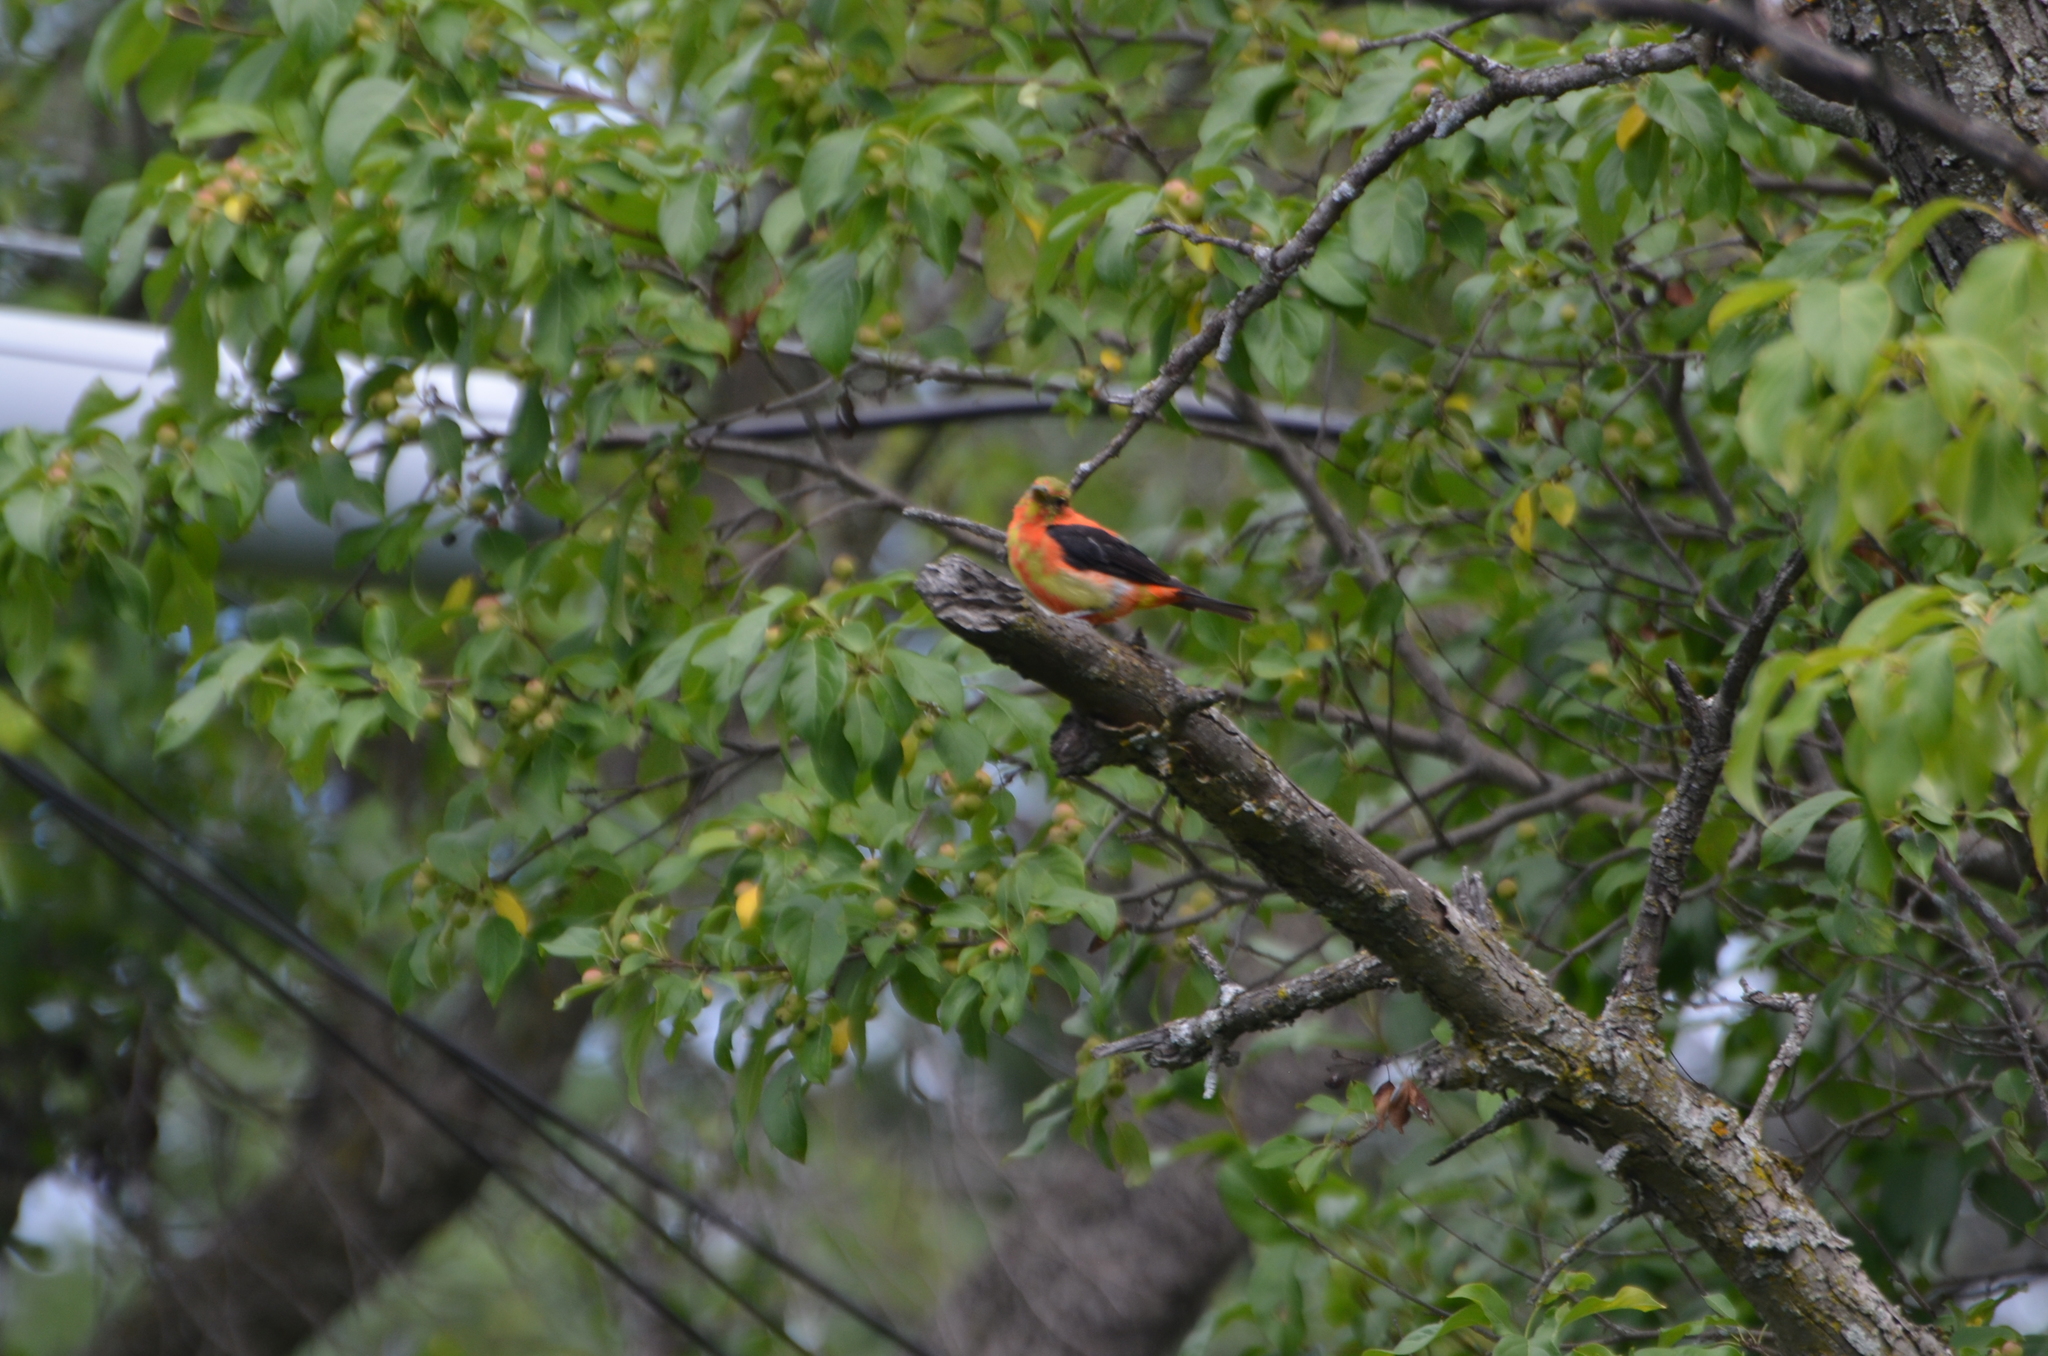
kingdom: Animalia
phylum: Chordata
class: Aves
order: Passeriformes
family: Cardinalidae
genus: Piranga
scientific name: Piranga olivacea
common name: Scarlet tanager
